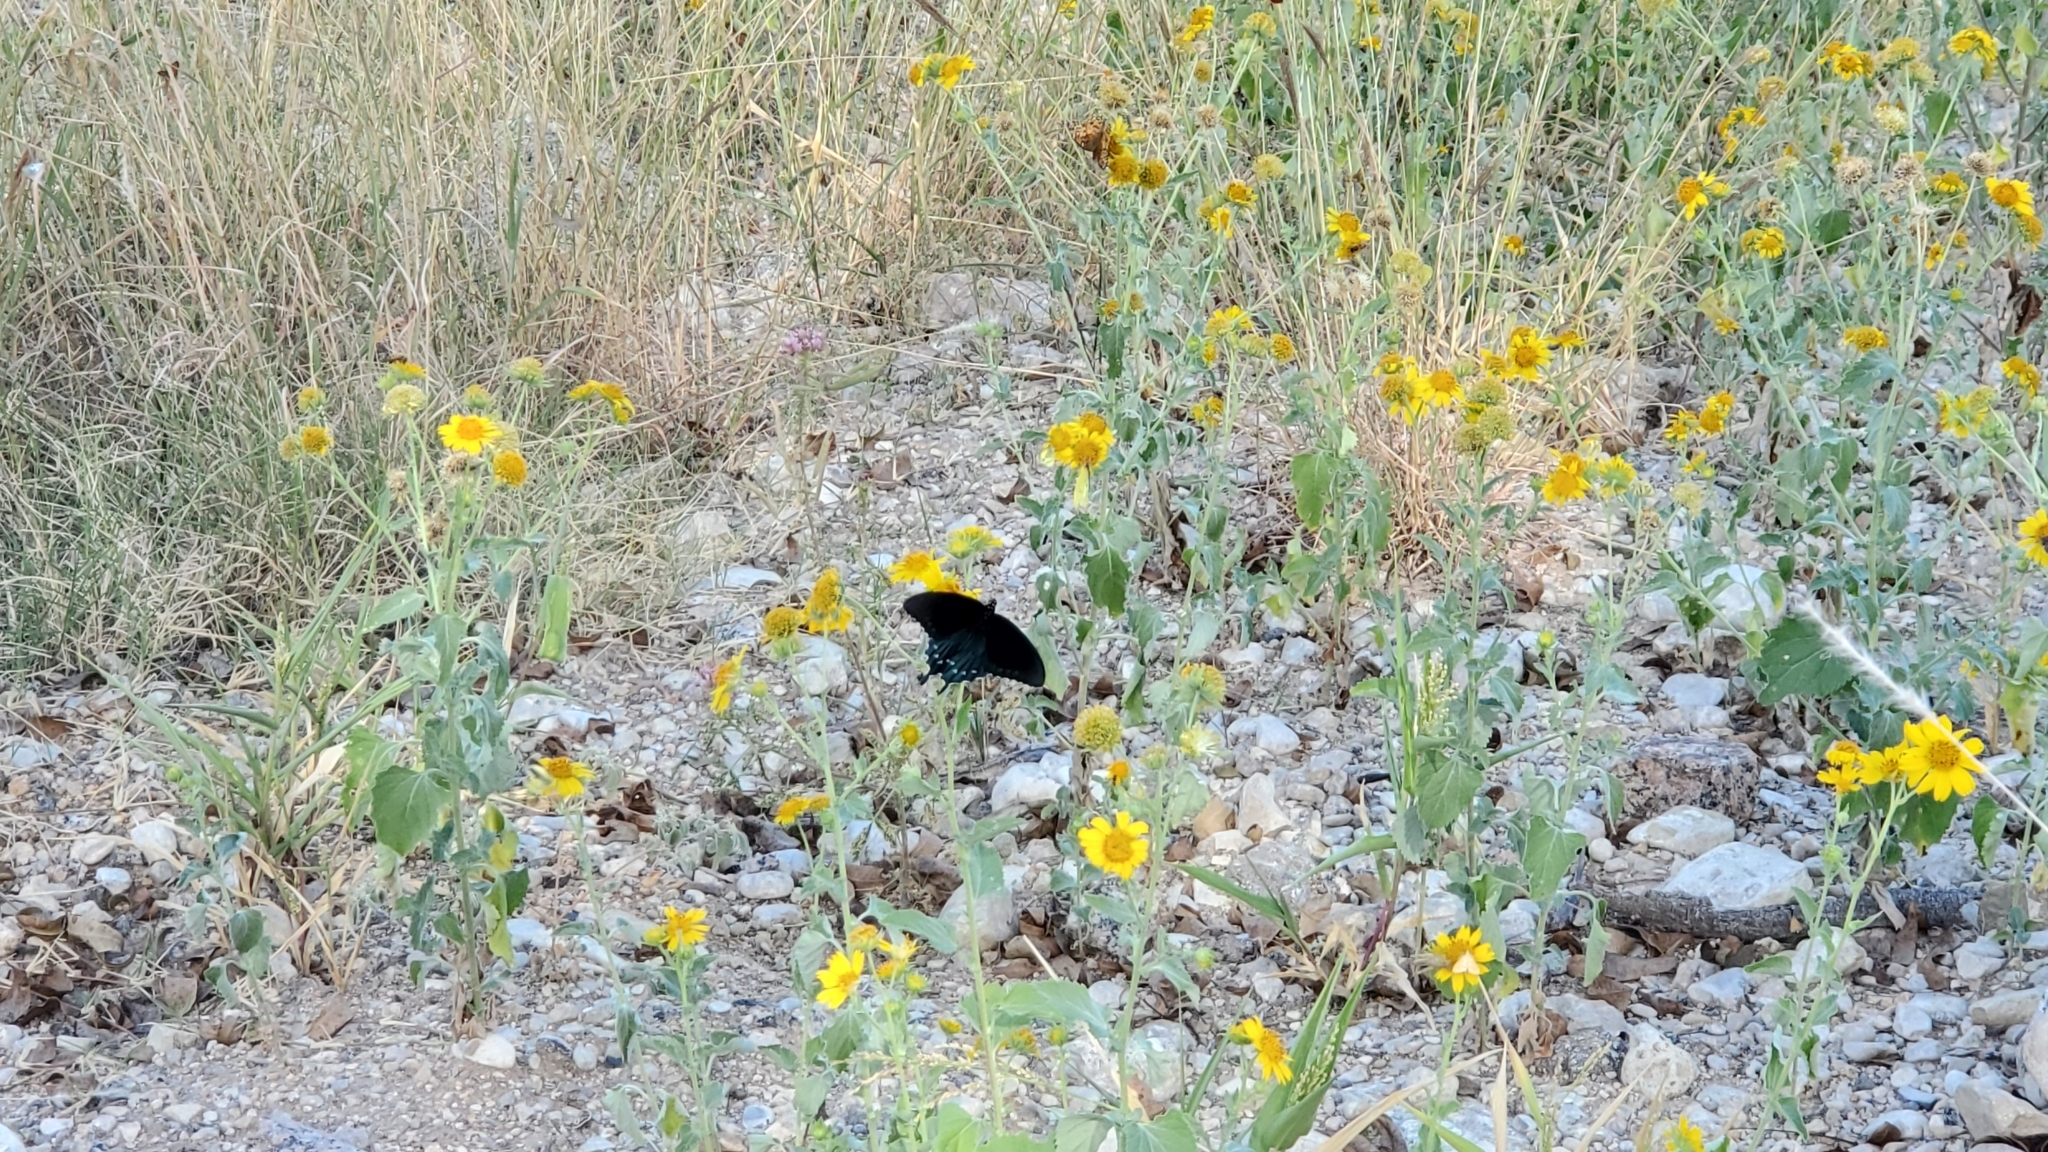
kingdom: Animalia
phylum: Arthropoda
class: Insecta
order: Lepidoptera
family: Papilionidae
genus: Battus
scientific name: Battus philenor
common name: Pipevine swallowtail
